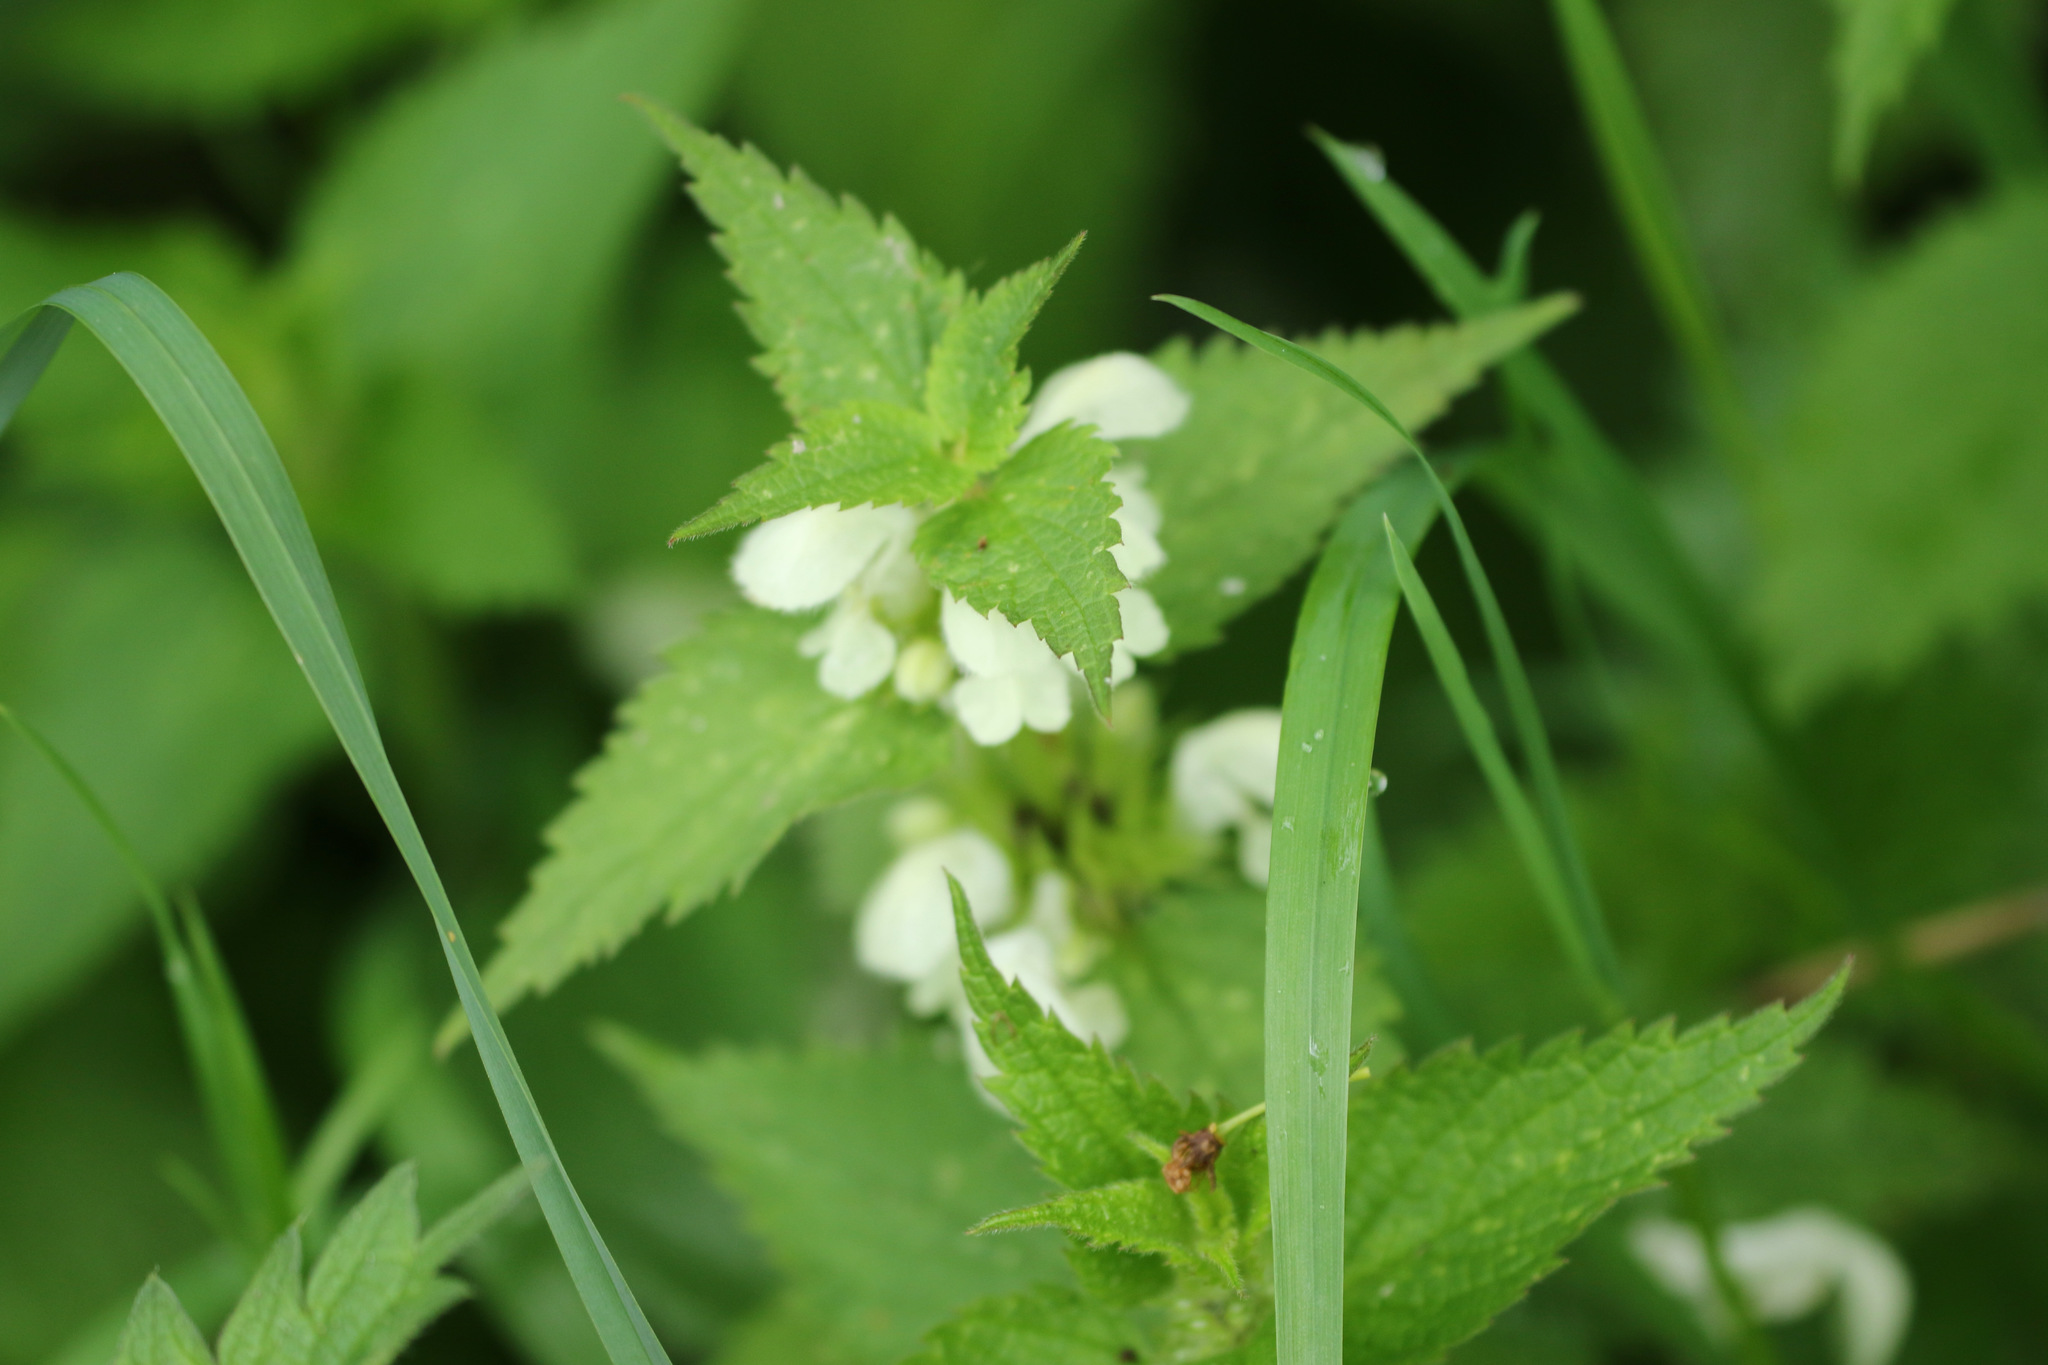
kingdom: Plantae
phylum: Tracheophyta
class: Magnoliopsida
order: Lamiales
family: Lamiaceae
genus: Lamium
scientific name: Lamium album
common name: White dead-nettle
